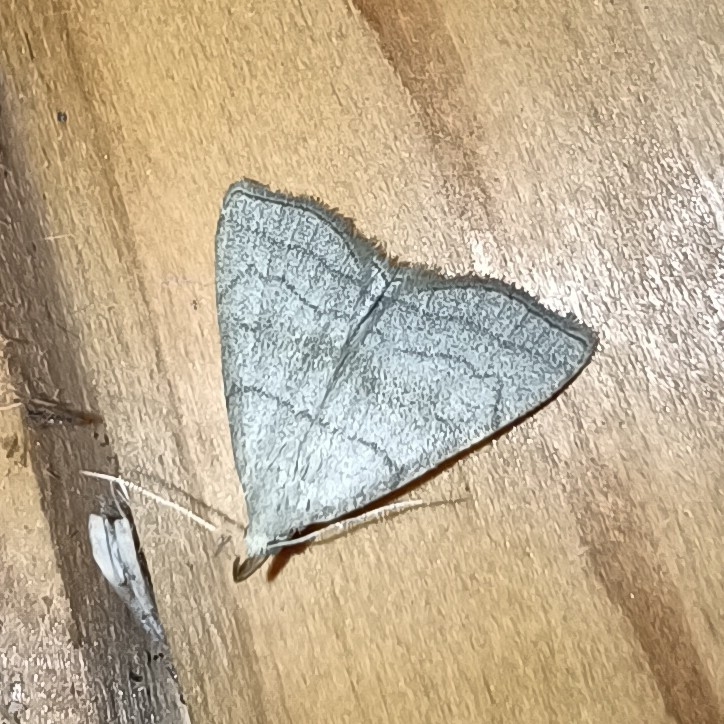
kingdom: Animalia
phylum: Arthropoda
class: Insecta
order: Lepidoptera
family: Erebidae
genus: Herminia
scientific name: Herminia tarsicrinalis
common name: Shaded fan-foot
